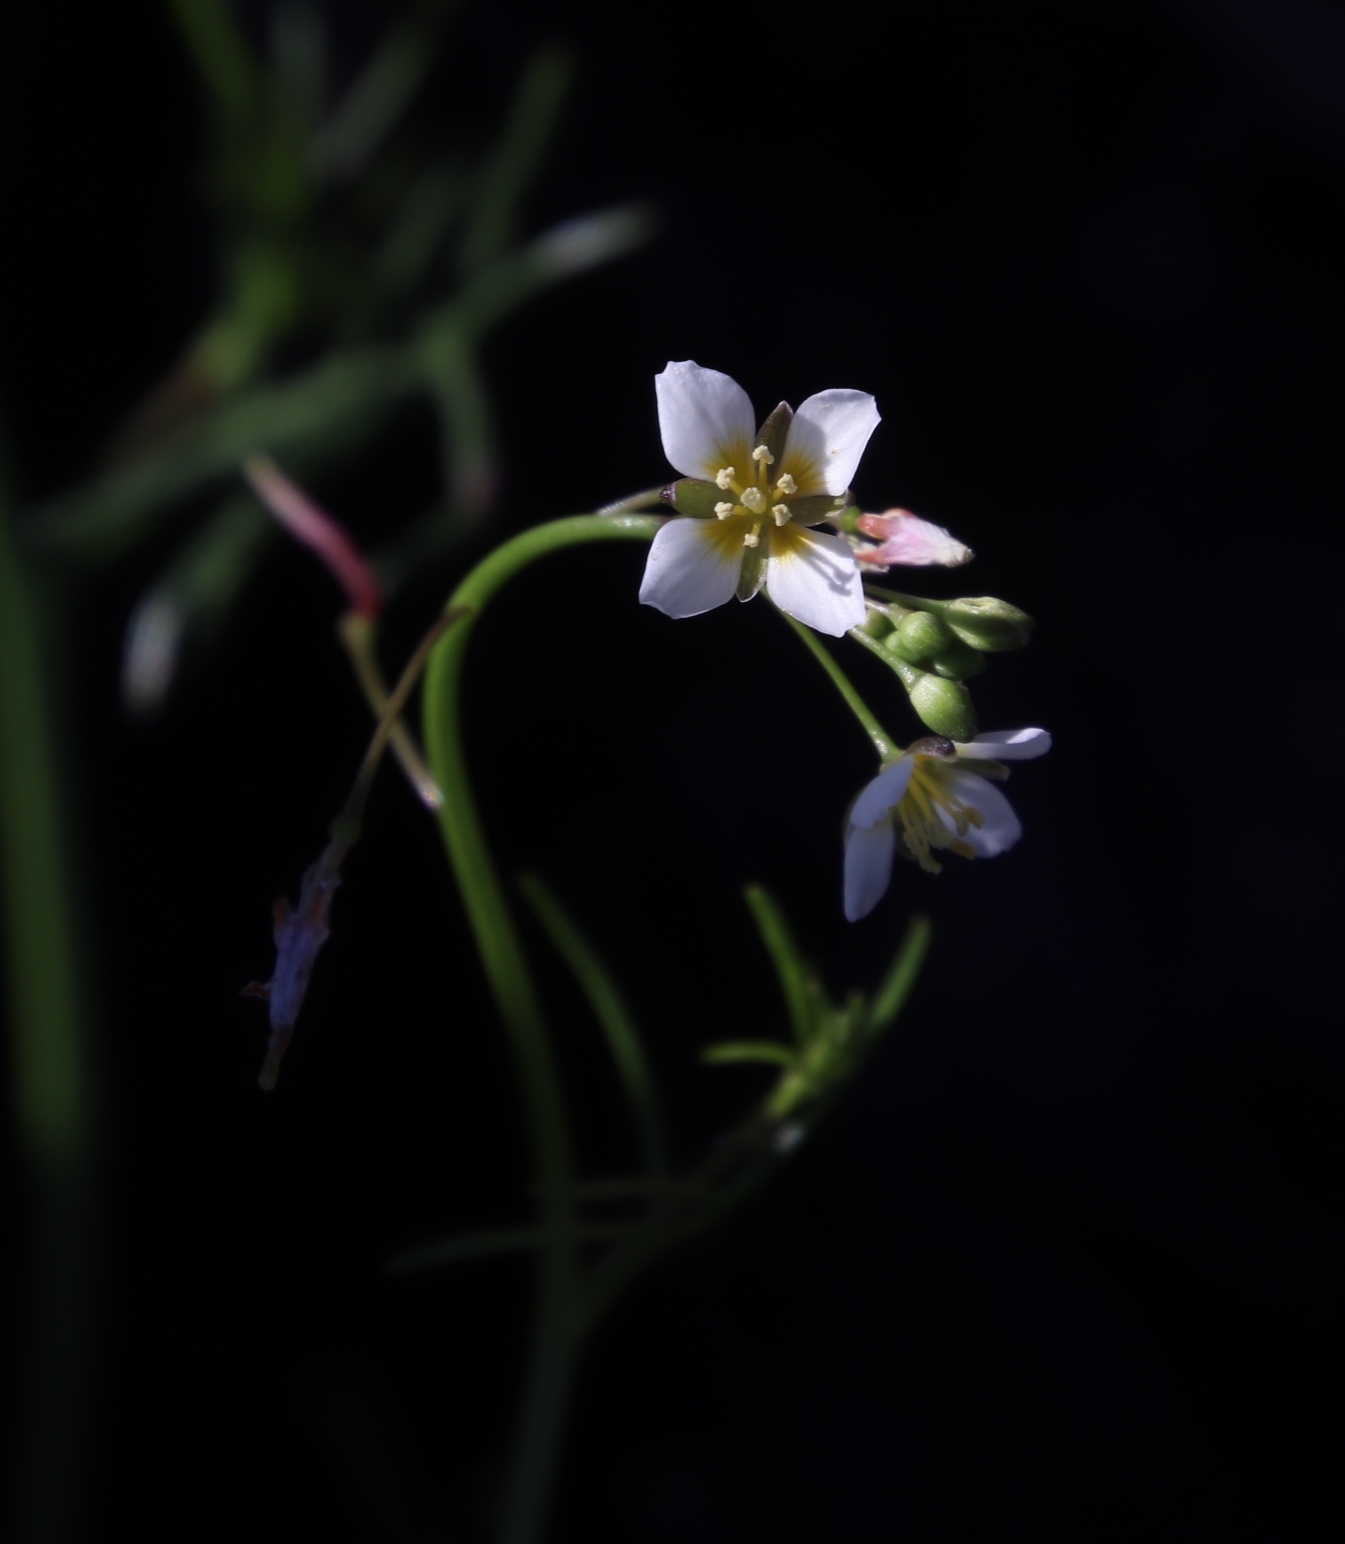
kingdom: Plantae
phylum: Tracheophyta
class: Magnoliopsida
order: Brassicales
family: Brassicaceae
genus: Heliophila
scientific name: Heliophila pendula
